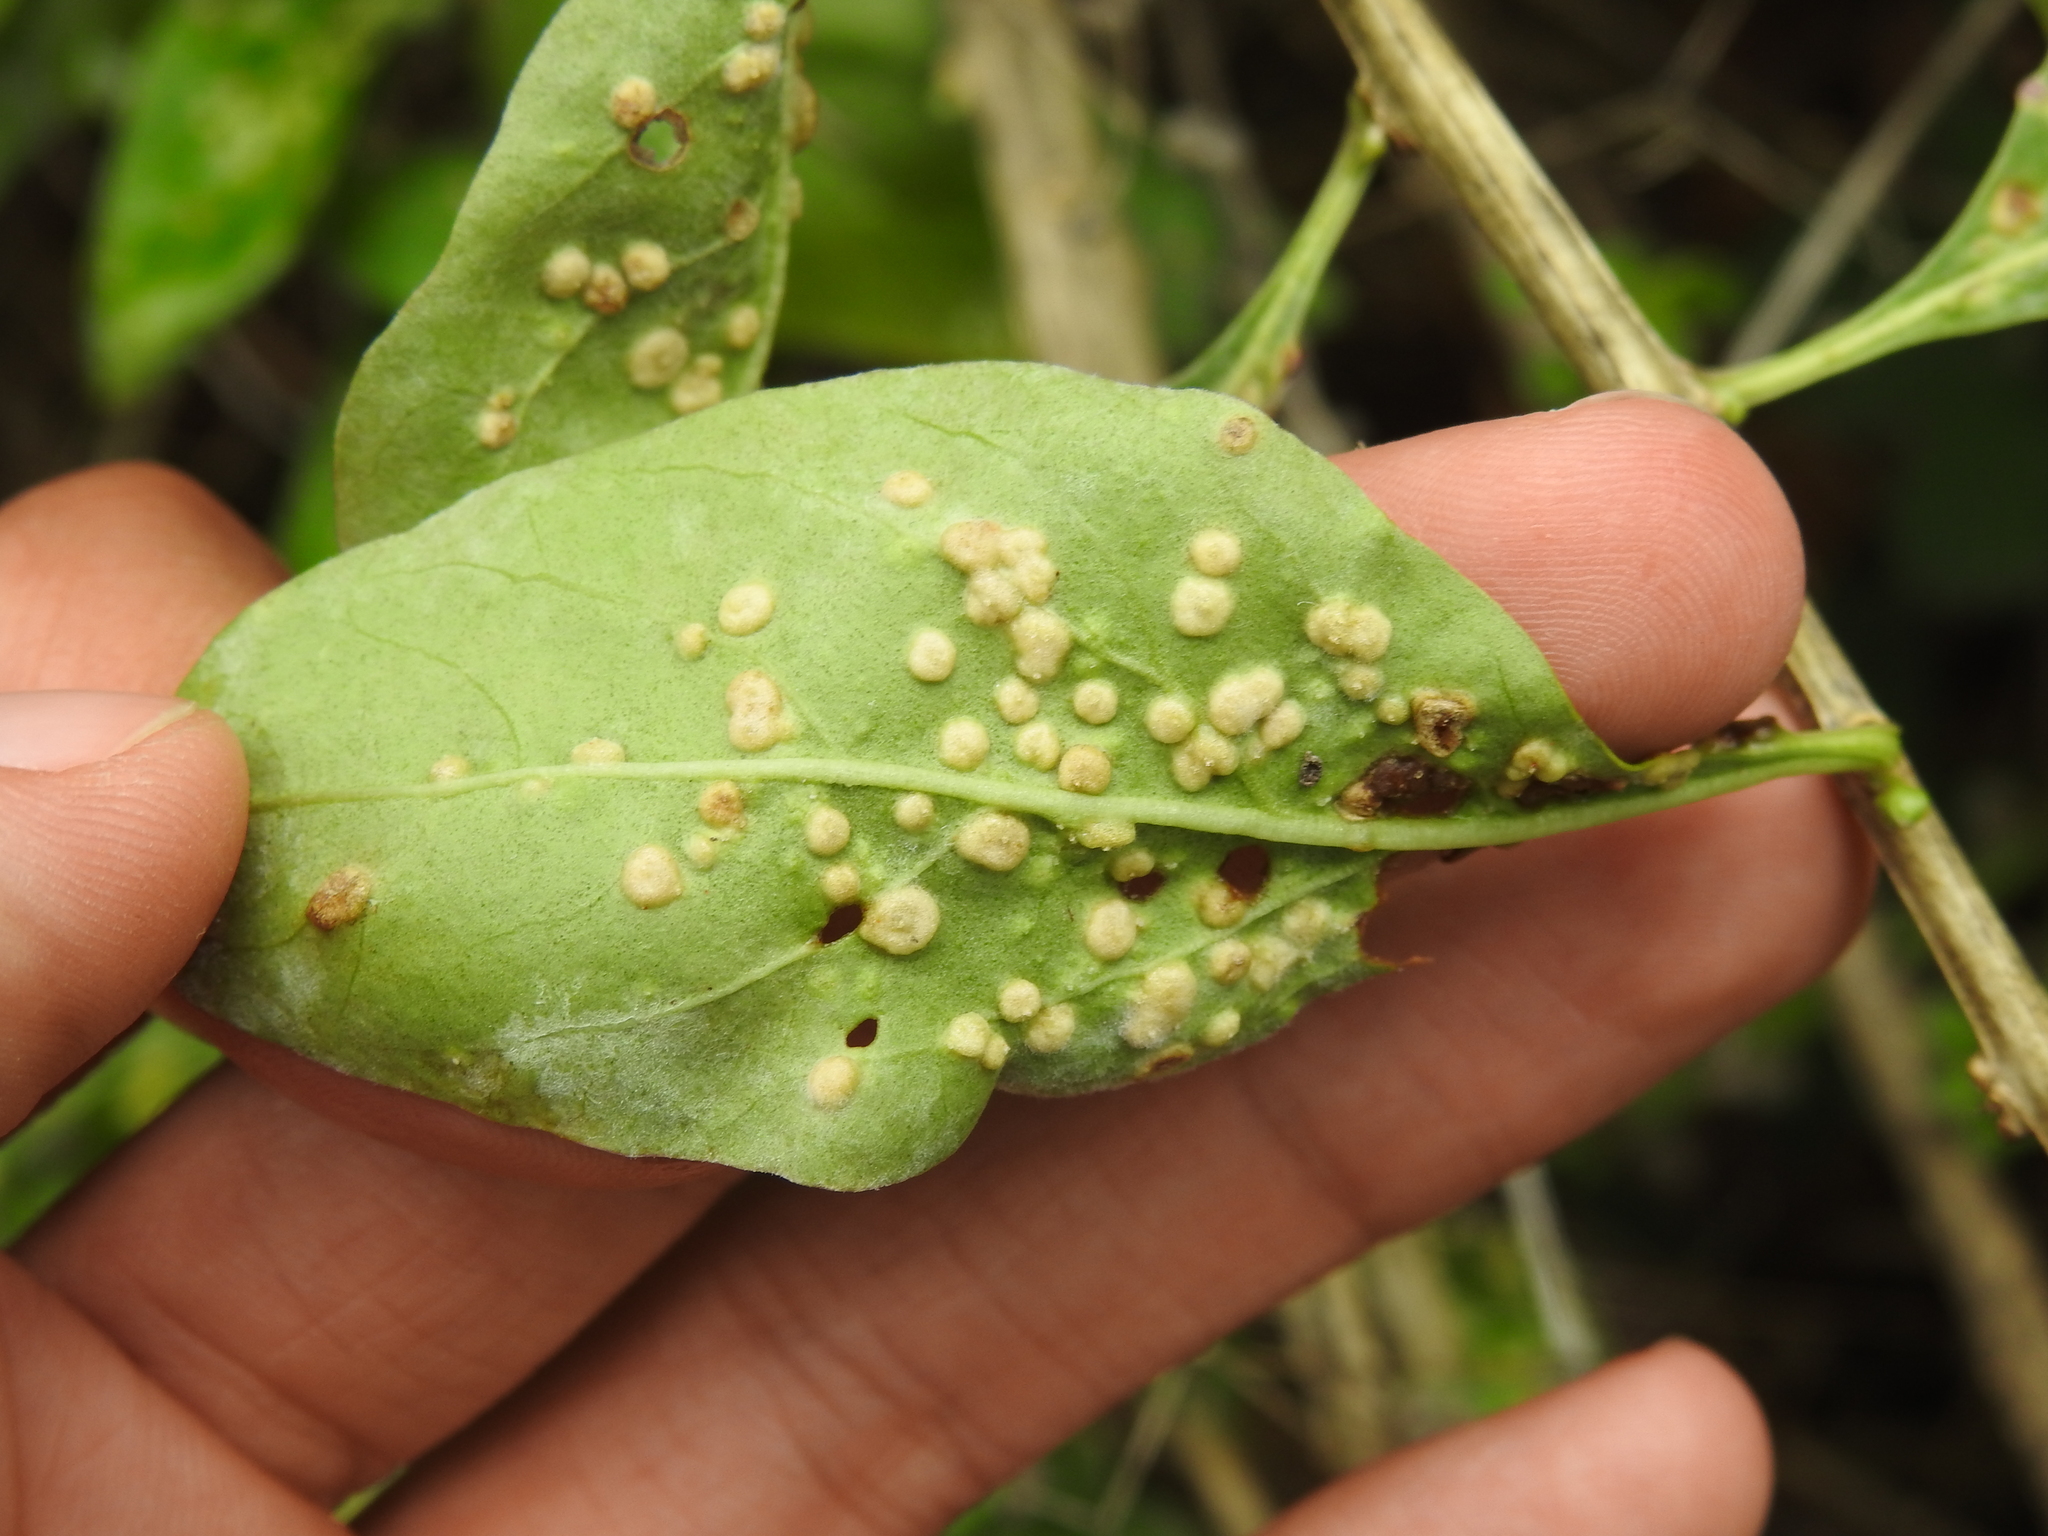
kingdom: Animalia
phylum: Arthropoda
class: Arachnida
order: Trombidiformes
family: Eriophyidae
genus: Aceria
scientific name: Aceria kuko
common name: Goji gall mite
